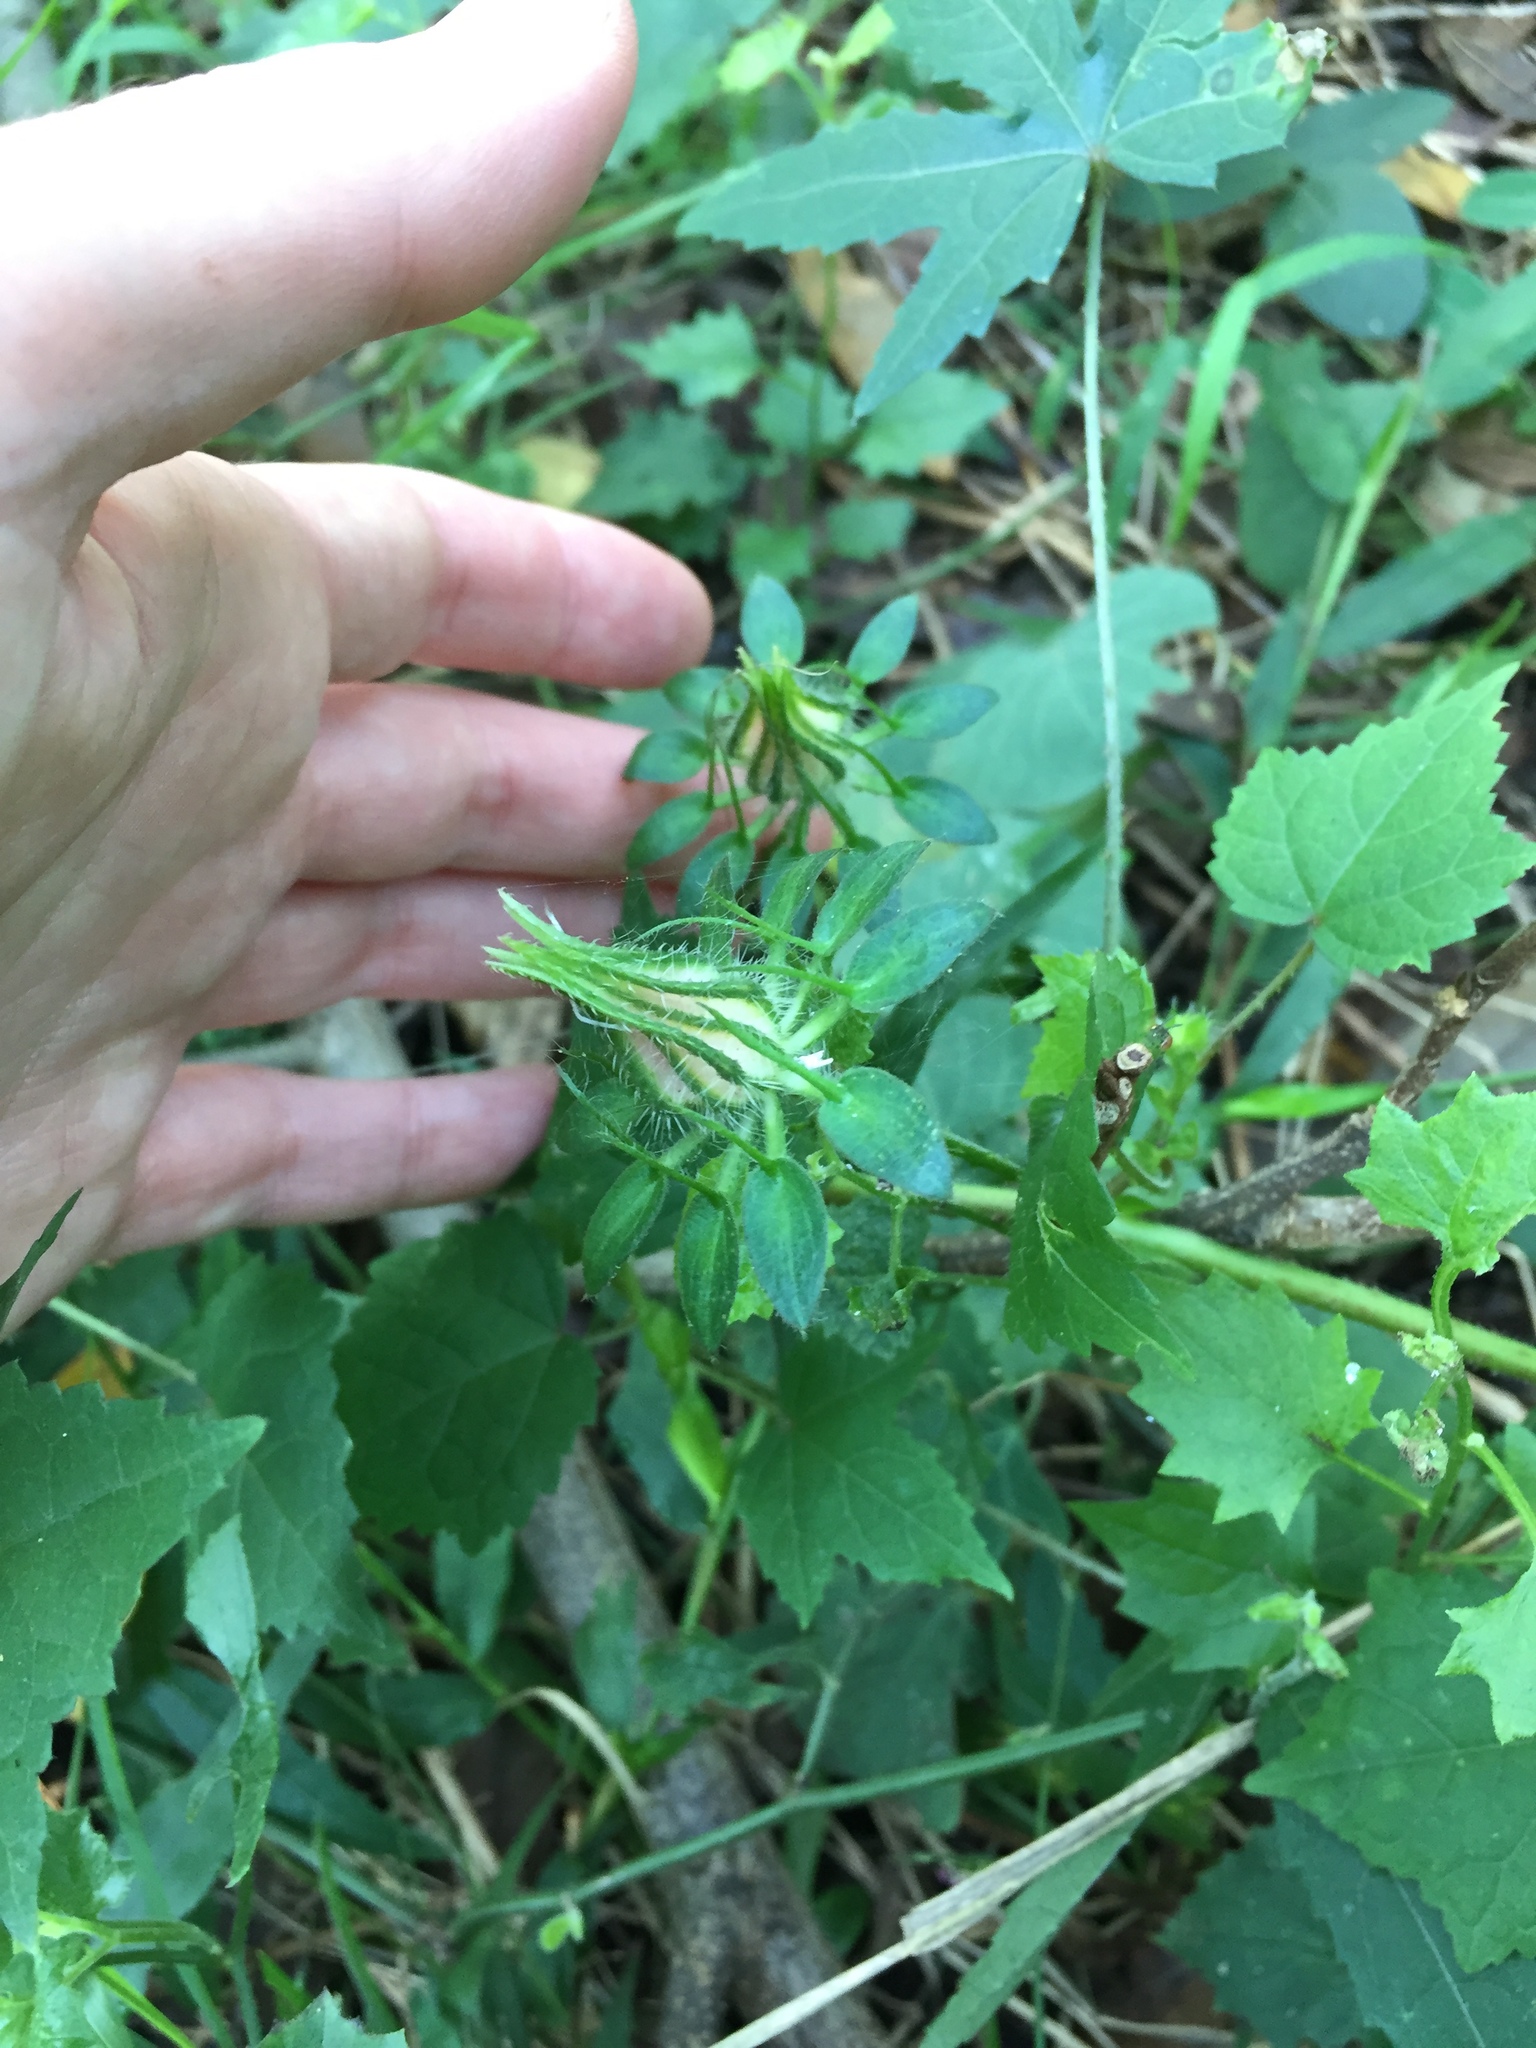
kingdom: Plantae
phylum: Tracheophyta
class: Magnoliopsida
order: Malvales
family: Malvaceae
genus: Hibiscus
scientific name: Hibiscus surattensis
